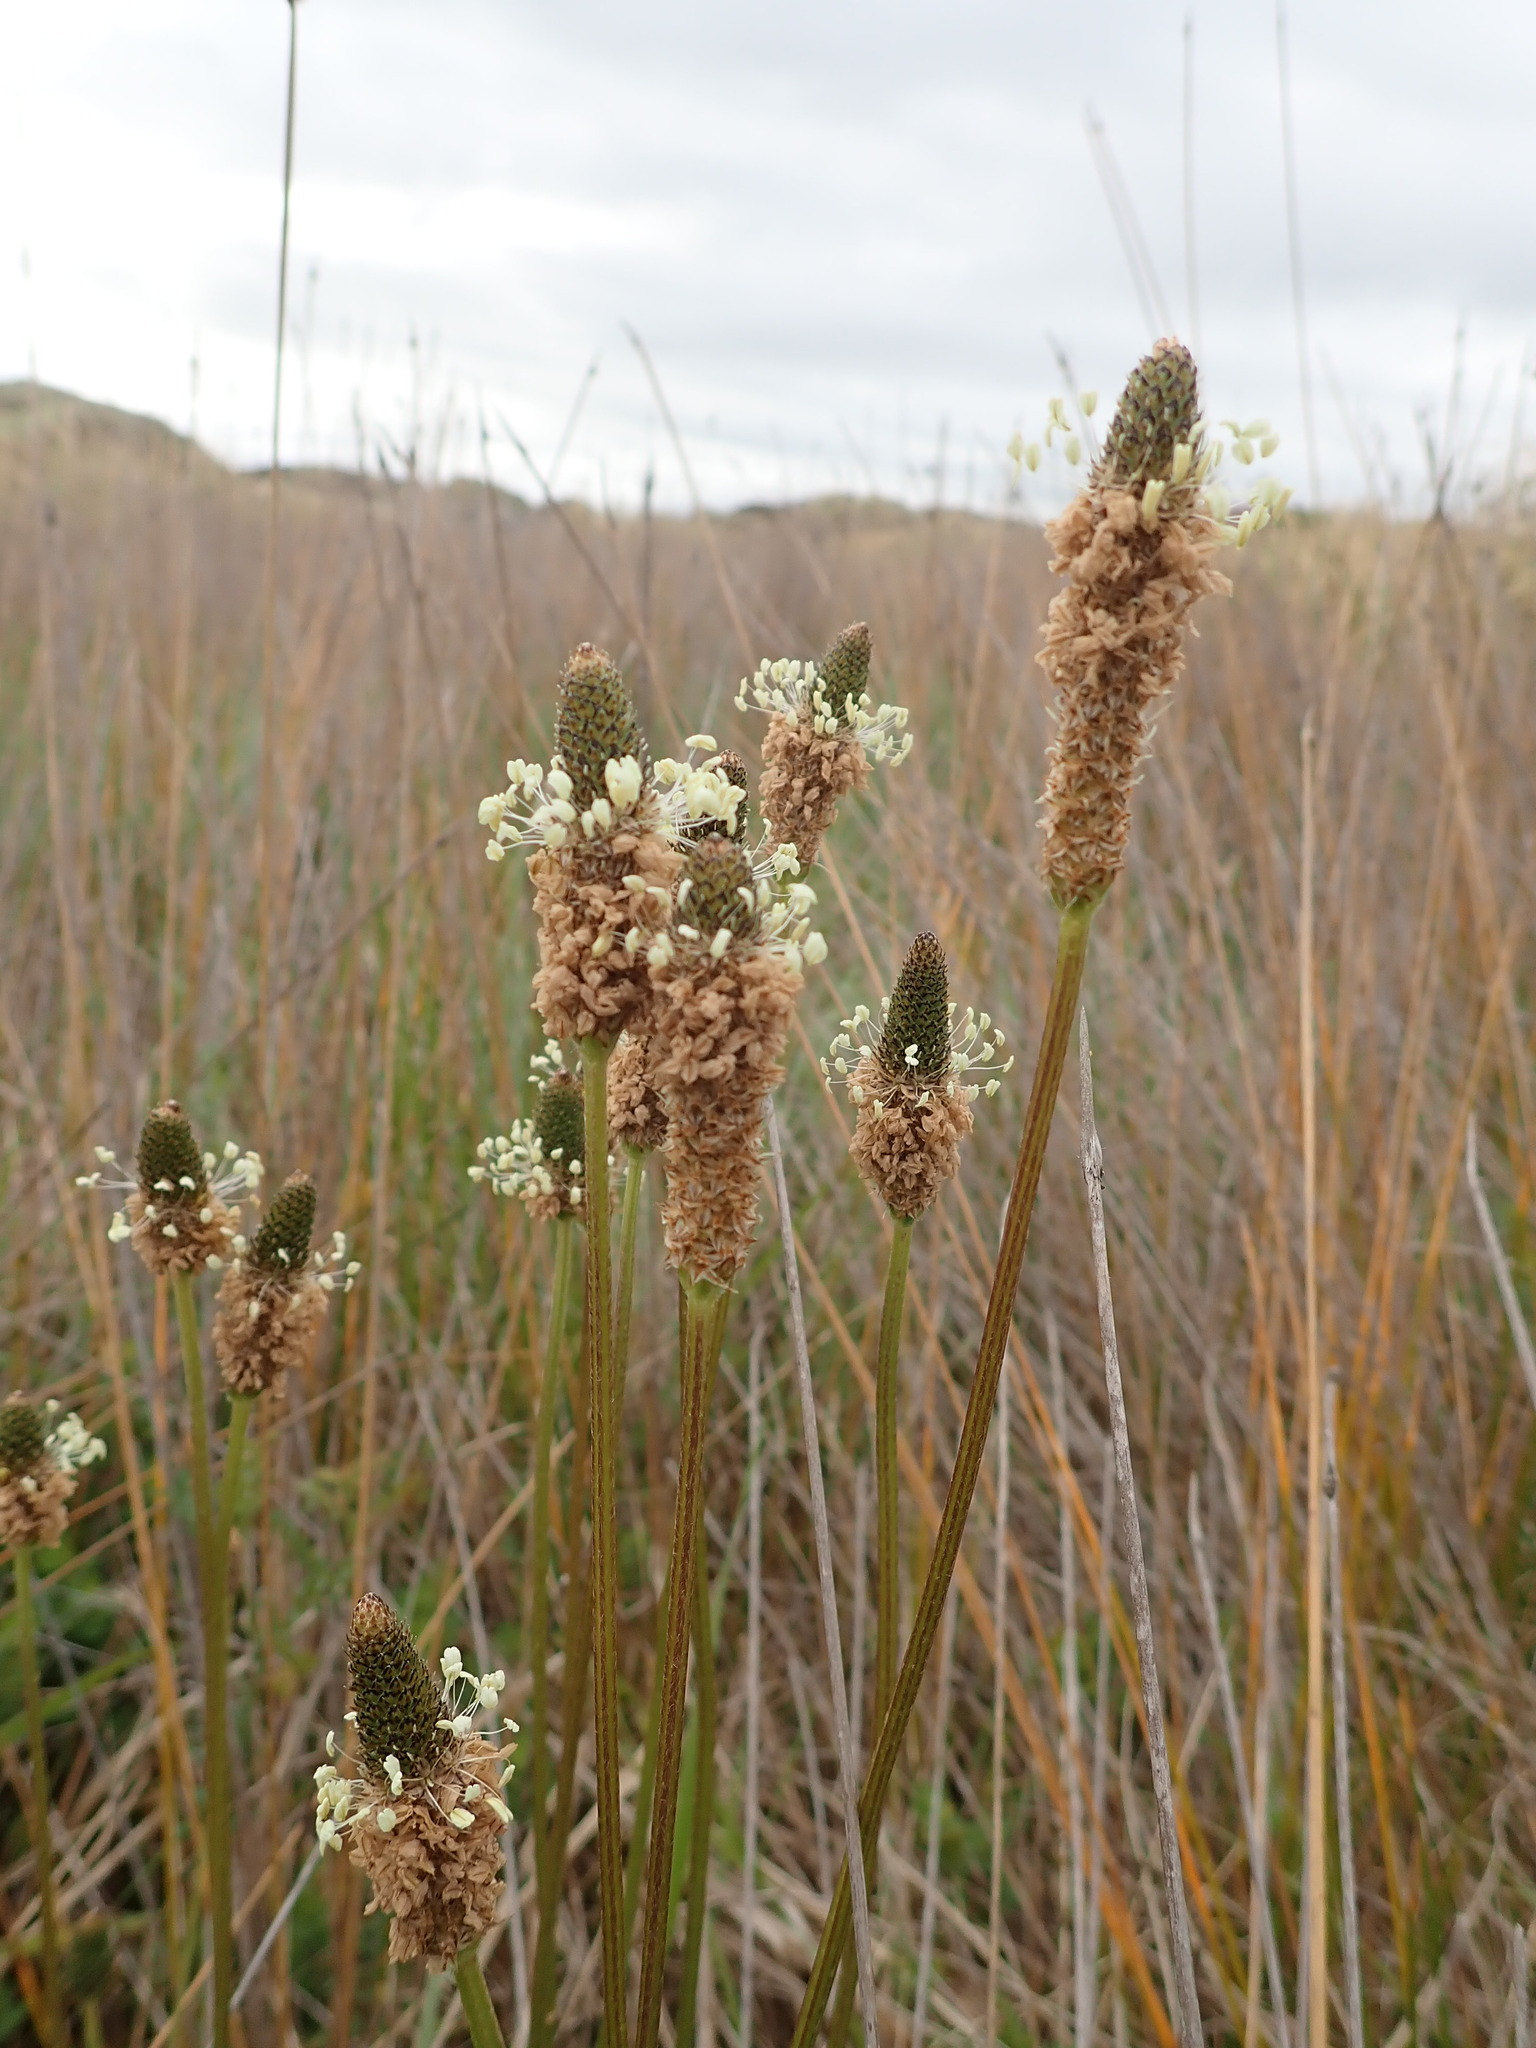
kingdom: Plantae
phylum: Tracheophyta
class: Magnoliopsida
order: Lamiales
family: Plantaginaceae
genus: Plantago
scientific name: Plantago lanceolata
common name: Ribwort plantain
